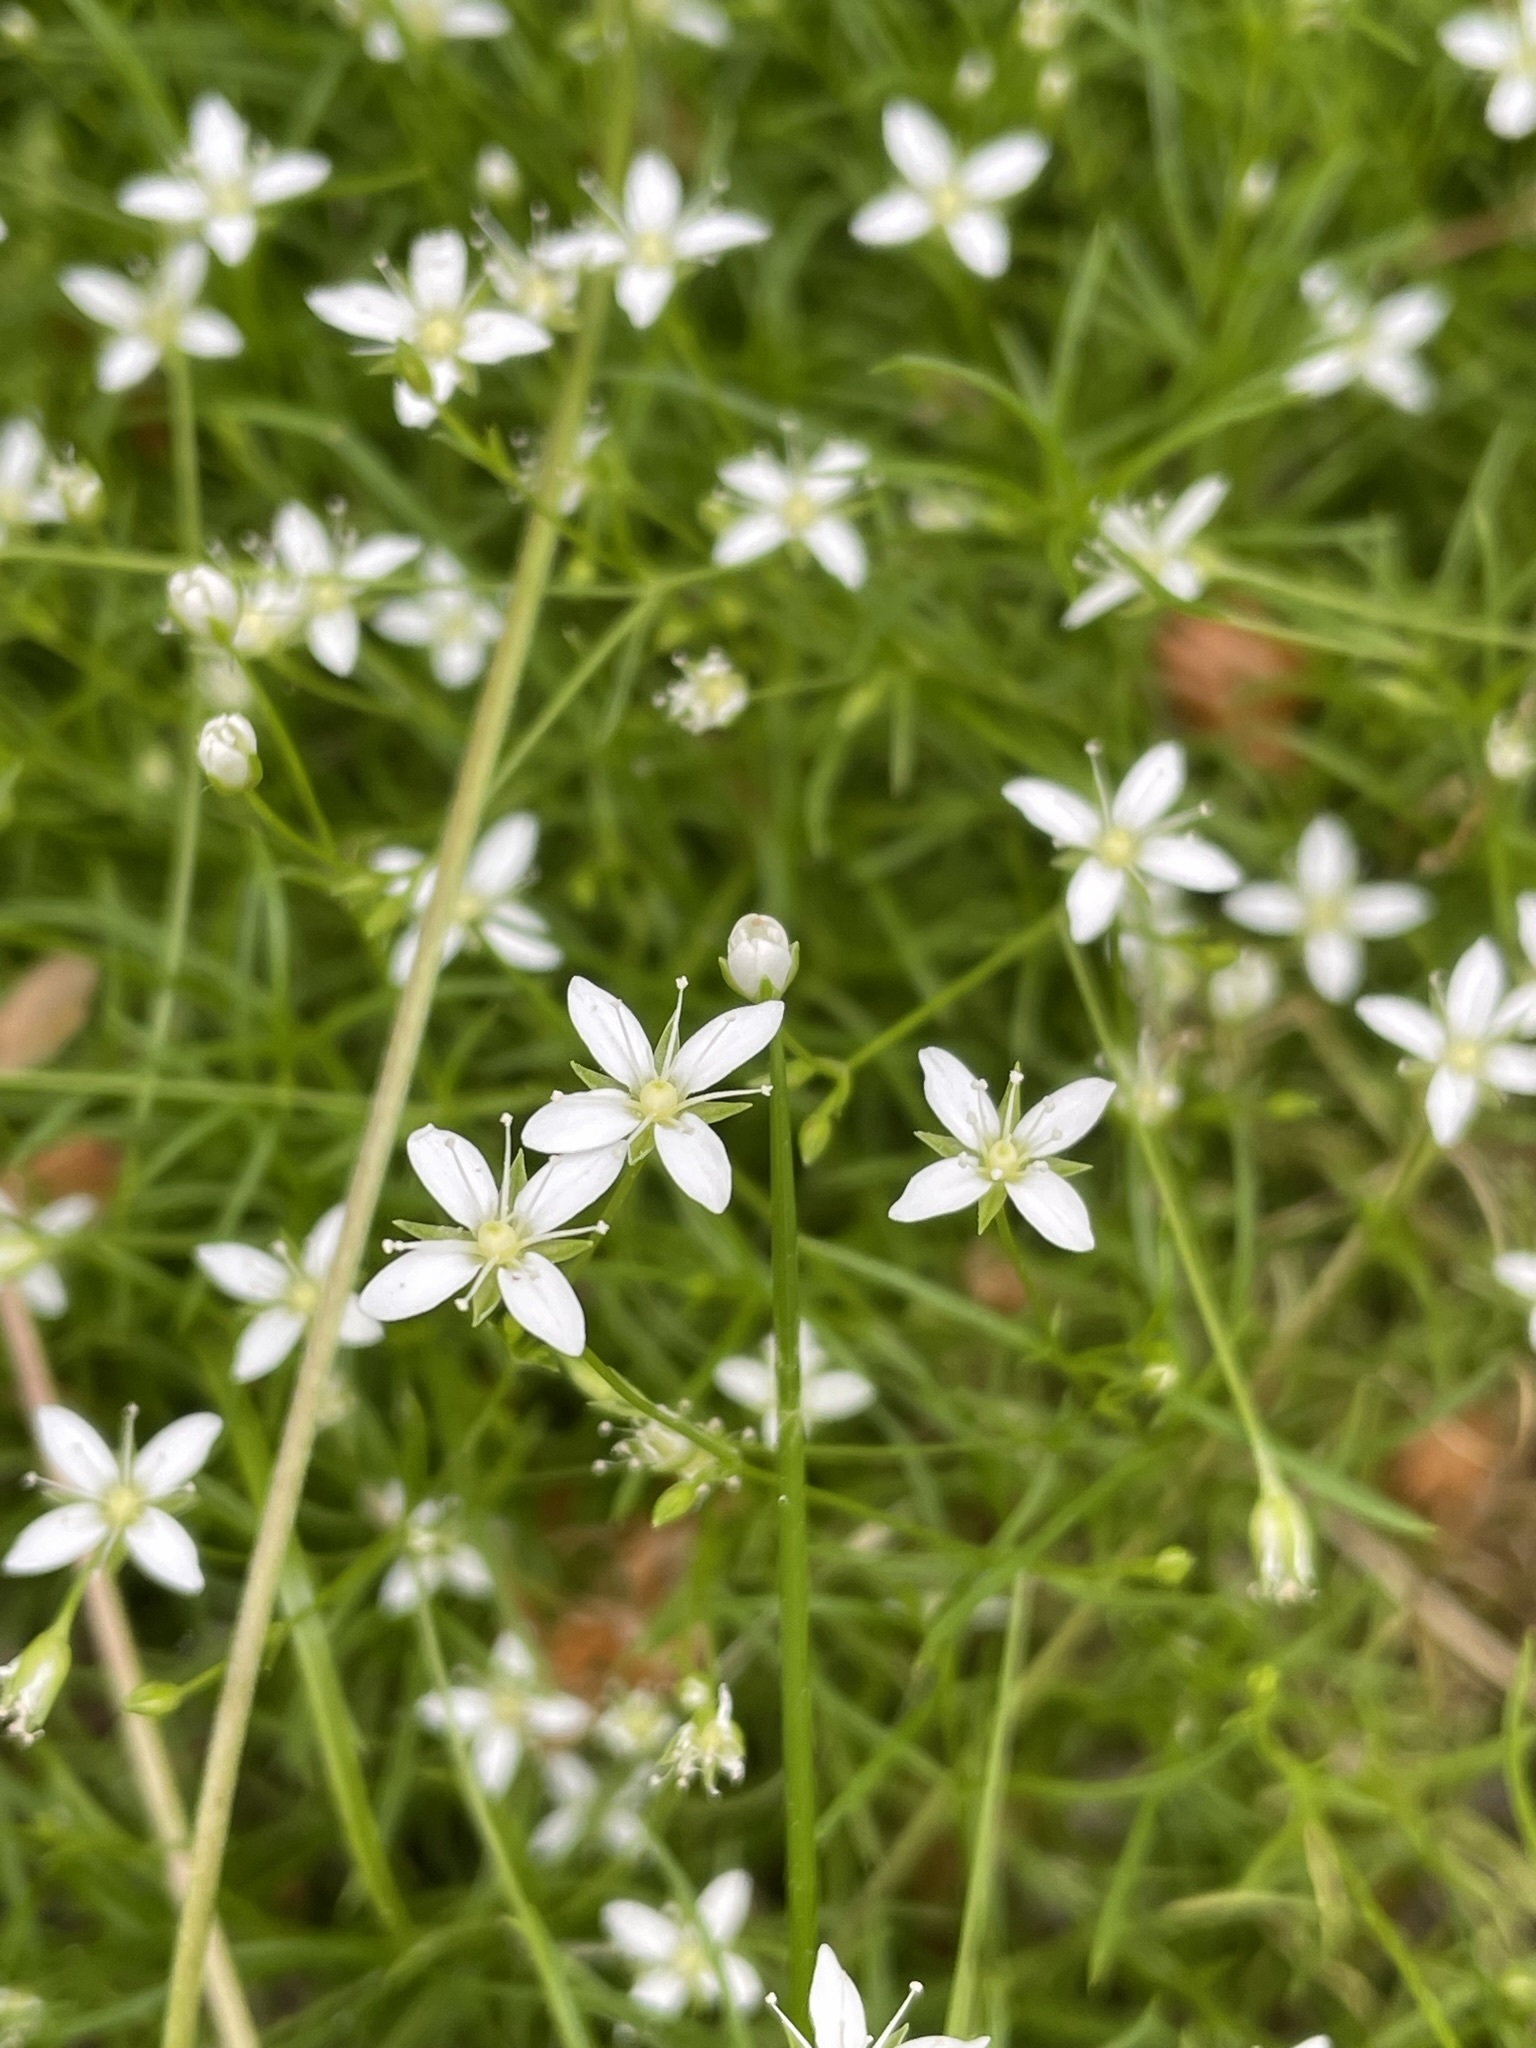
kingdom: Plantae
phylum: Tracheophyta
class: Magnoliopsida
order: Caryophyllales
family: Caryophyllaceae
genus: Moehringia
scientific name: Moehringia muscosa
